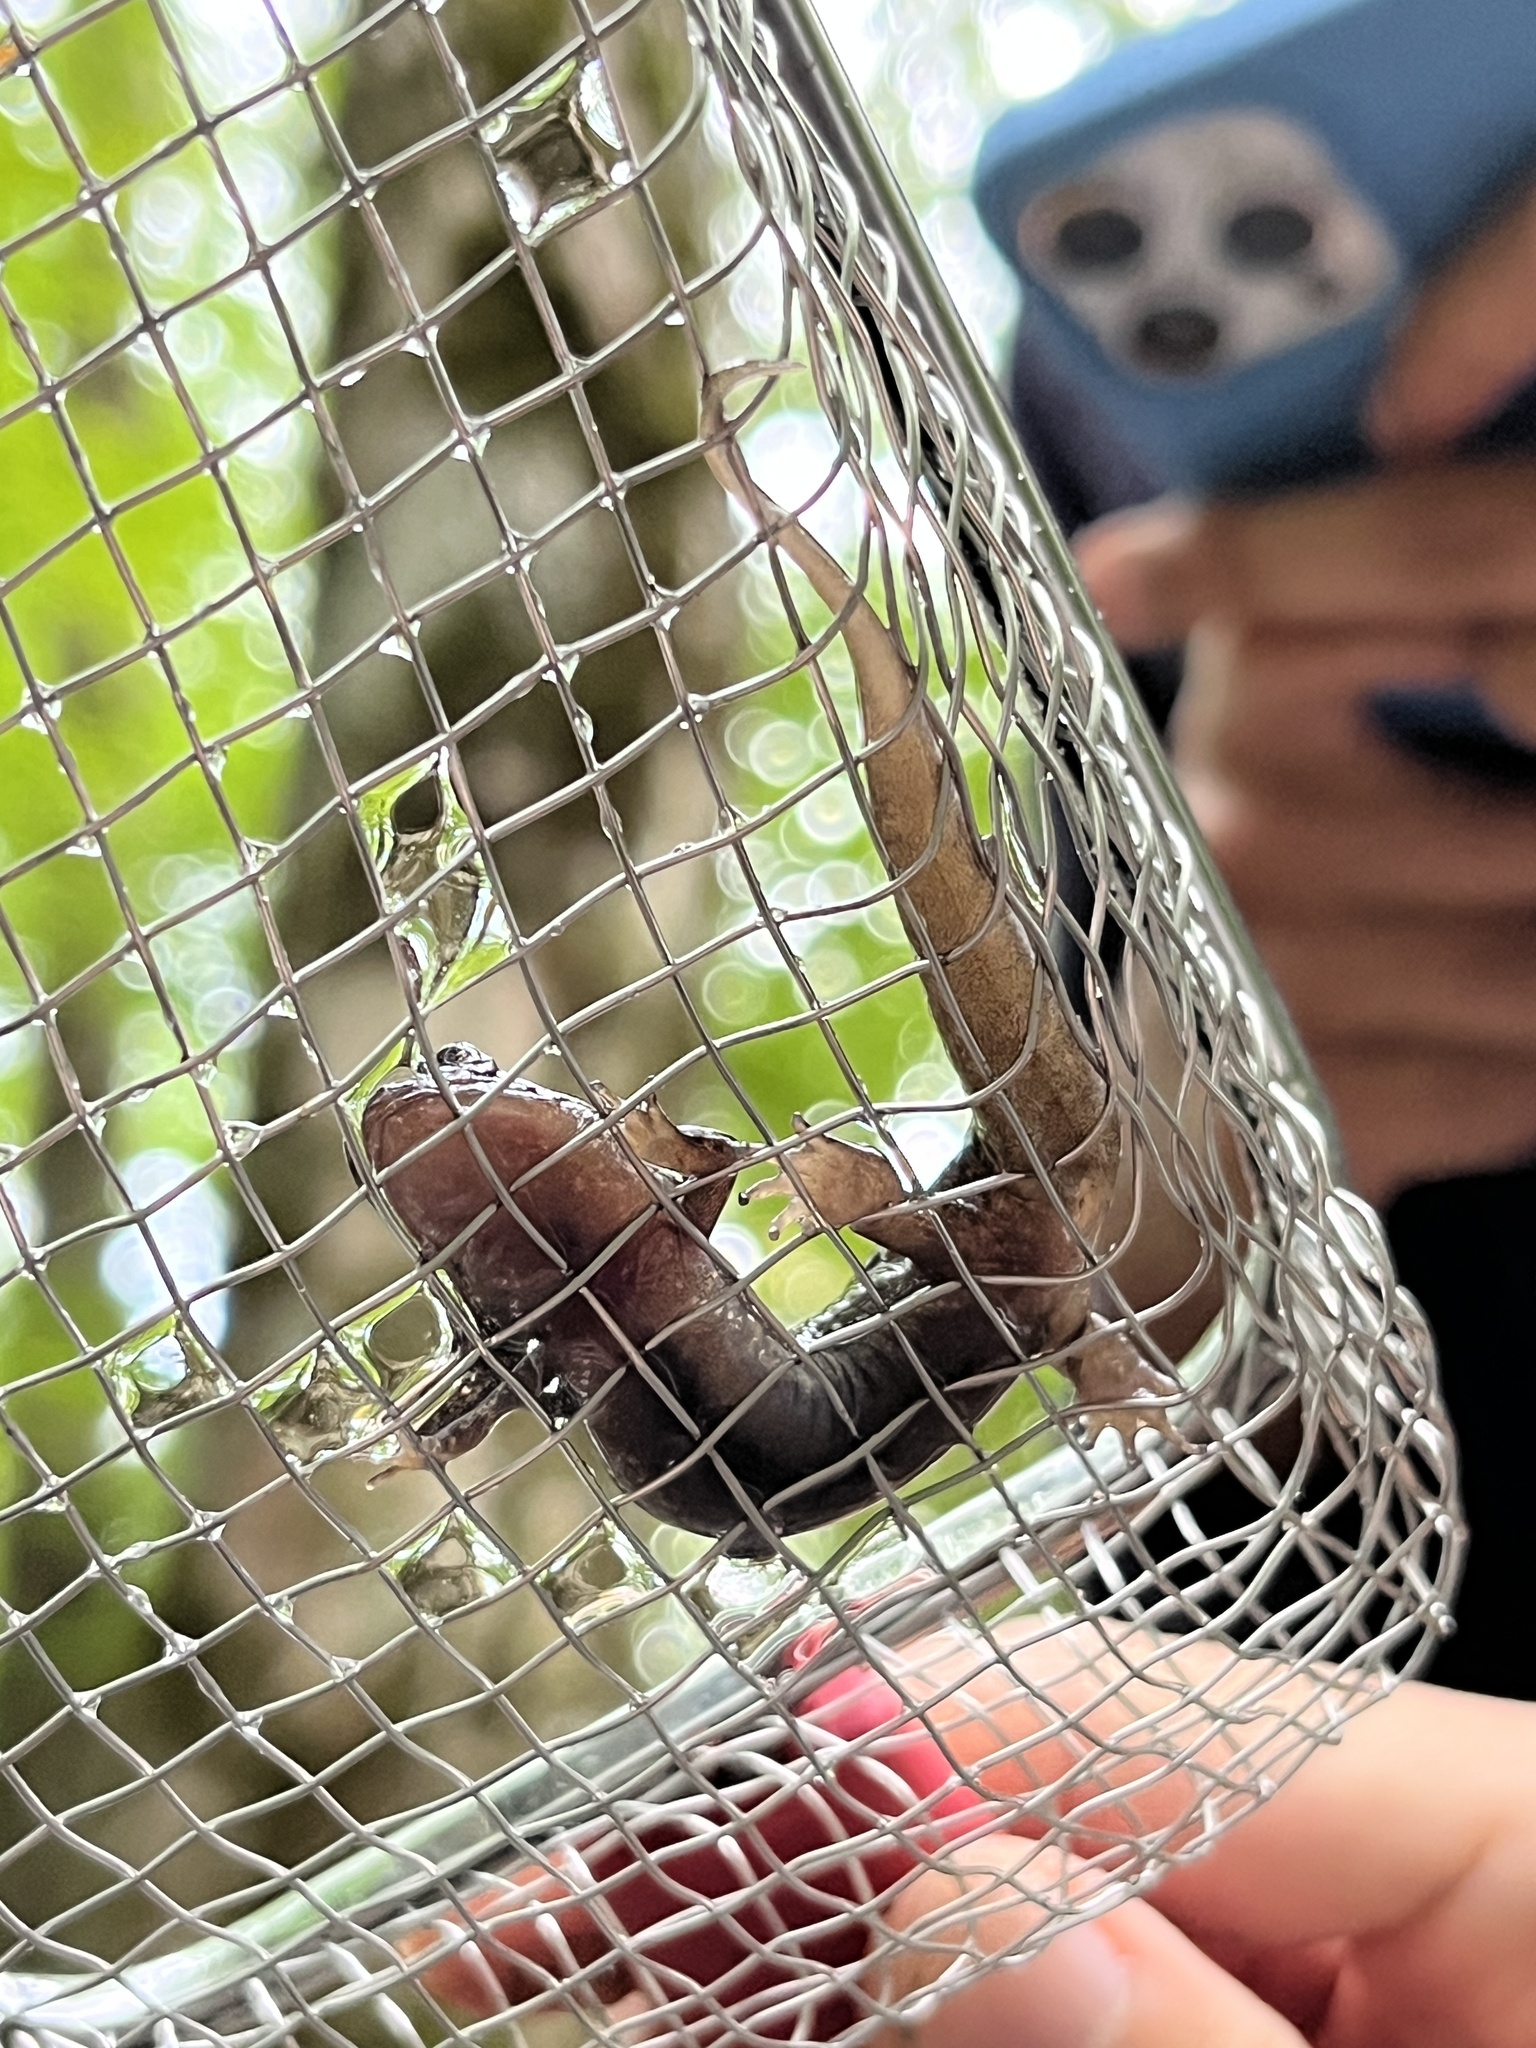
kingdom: Animalia
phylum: Chordata
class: Amphibia
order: Caudata
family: Plethodontidae
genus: Desmognathus
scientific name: Desmognathus
